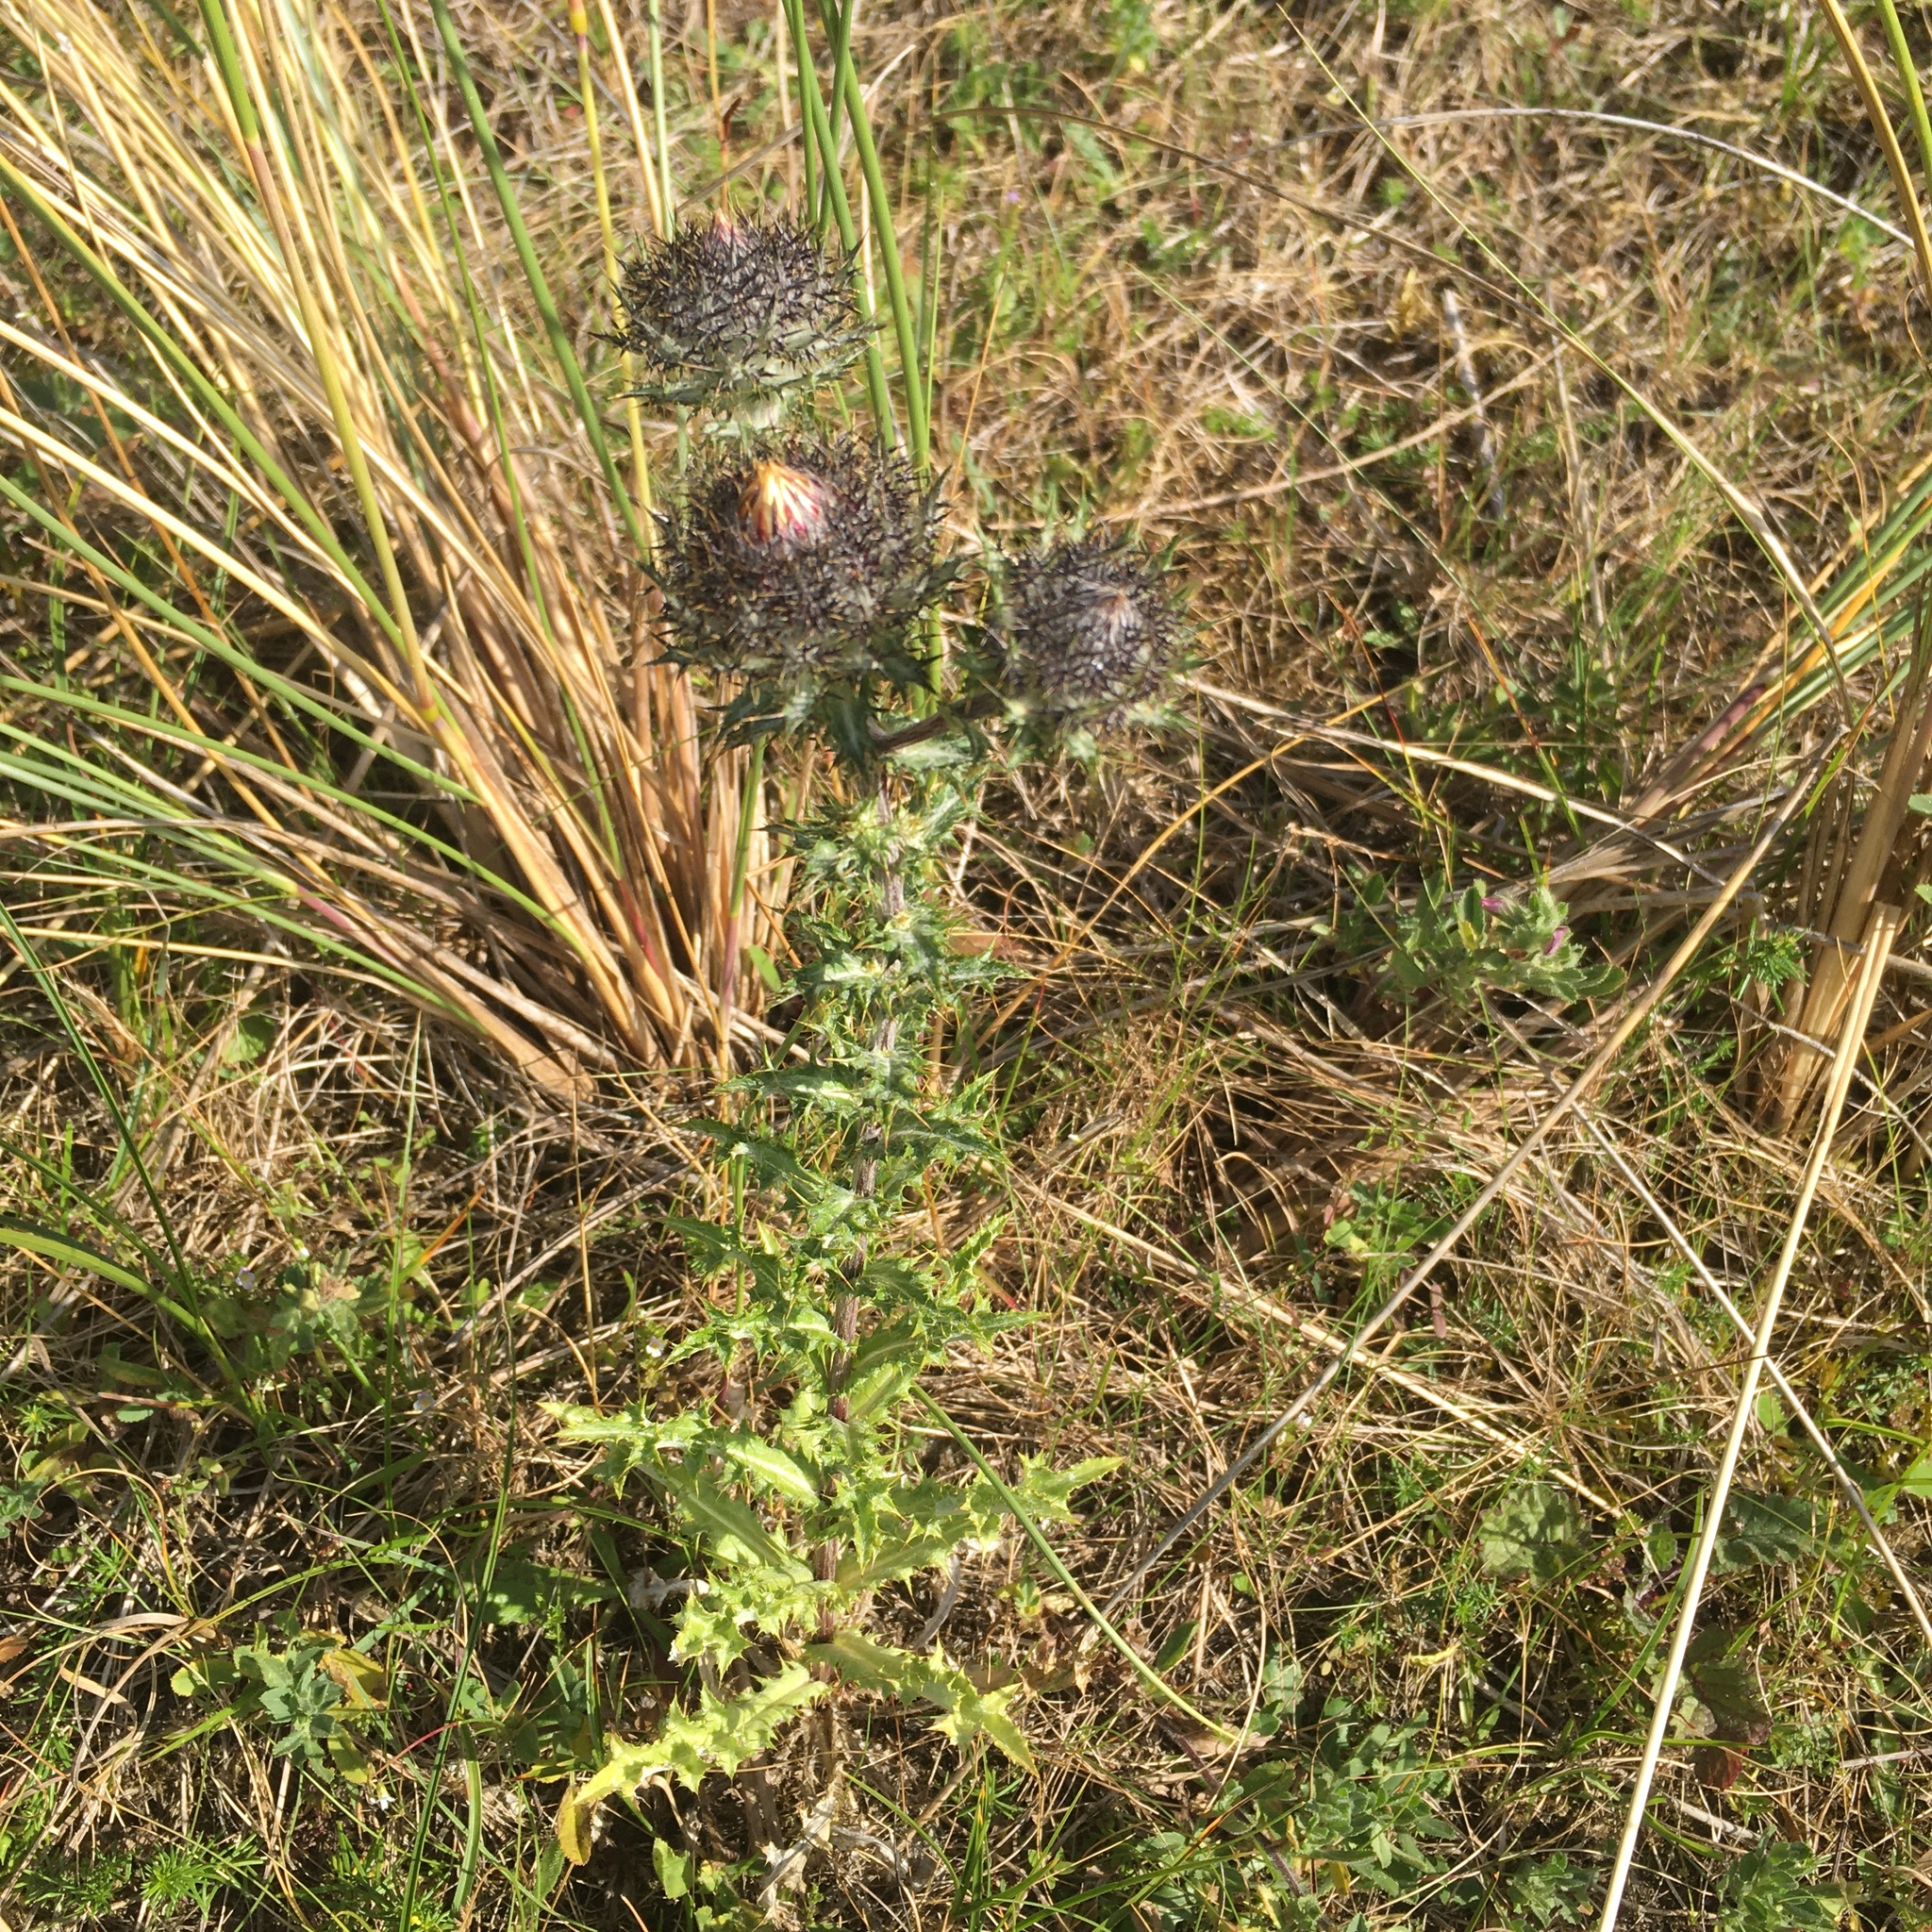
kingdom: Plantae
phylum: Tracheophyta
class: Magnoliopsida
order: Asterales
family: Asteraceae
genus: Carlina
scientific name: Carlina vulgaris
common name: Carline thistle
